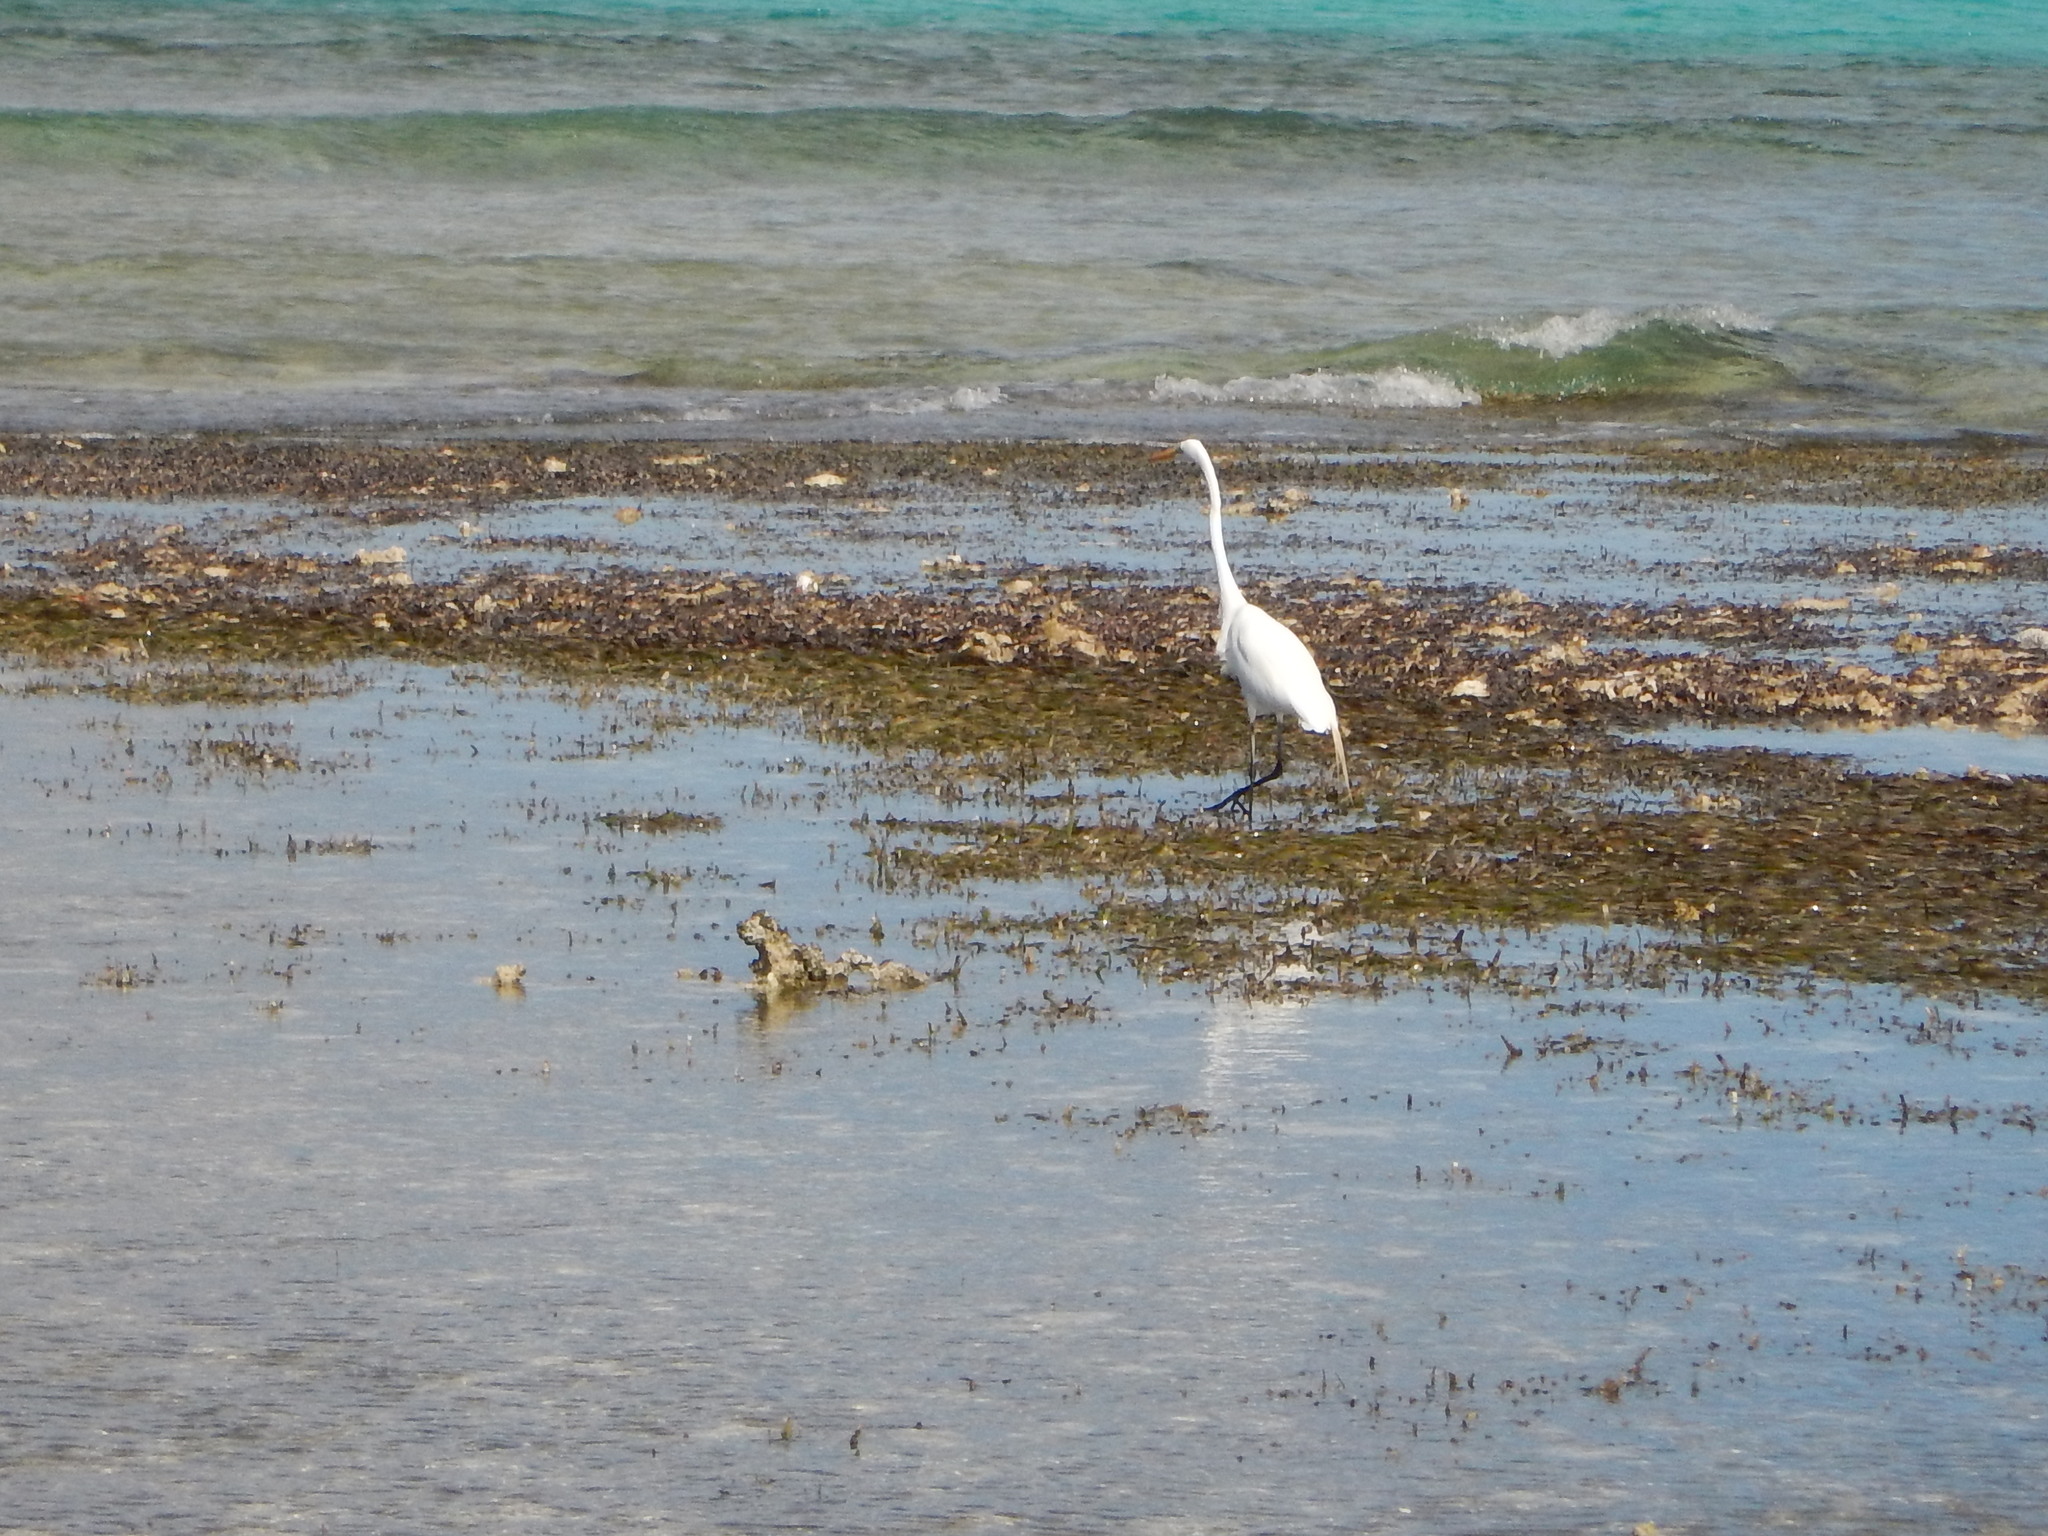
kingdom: Animalia
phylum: Chordata
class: Aves
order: Pelecaniformes
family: Ardeidae
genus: Ardea
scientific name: Ardea alba
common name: Great egret
